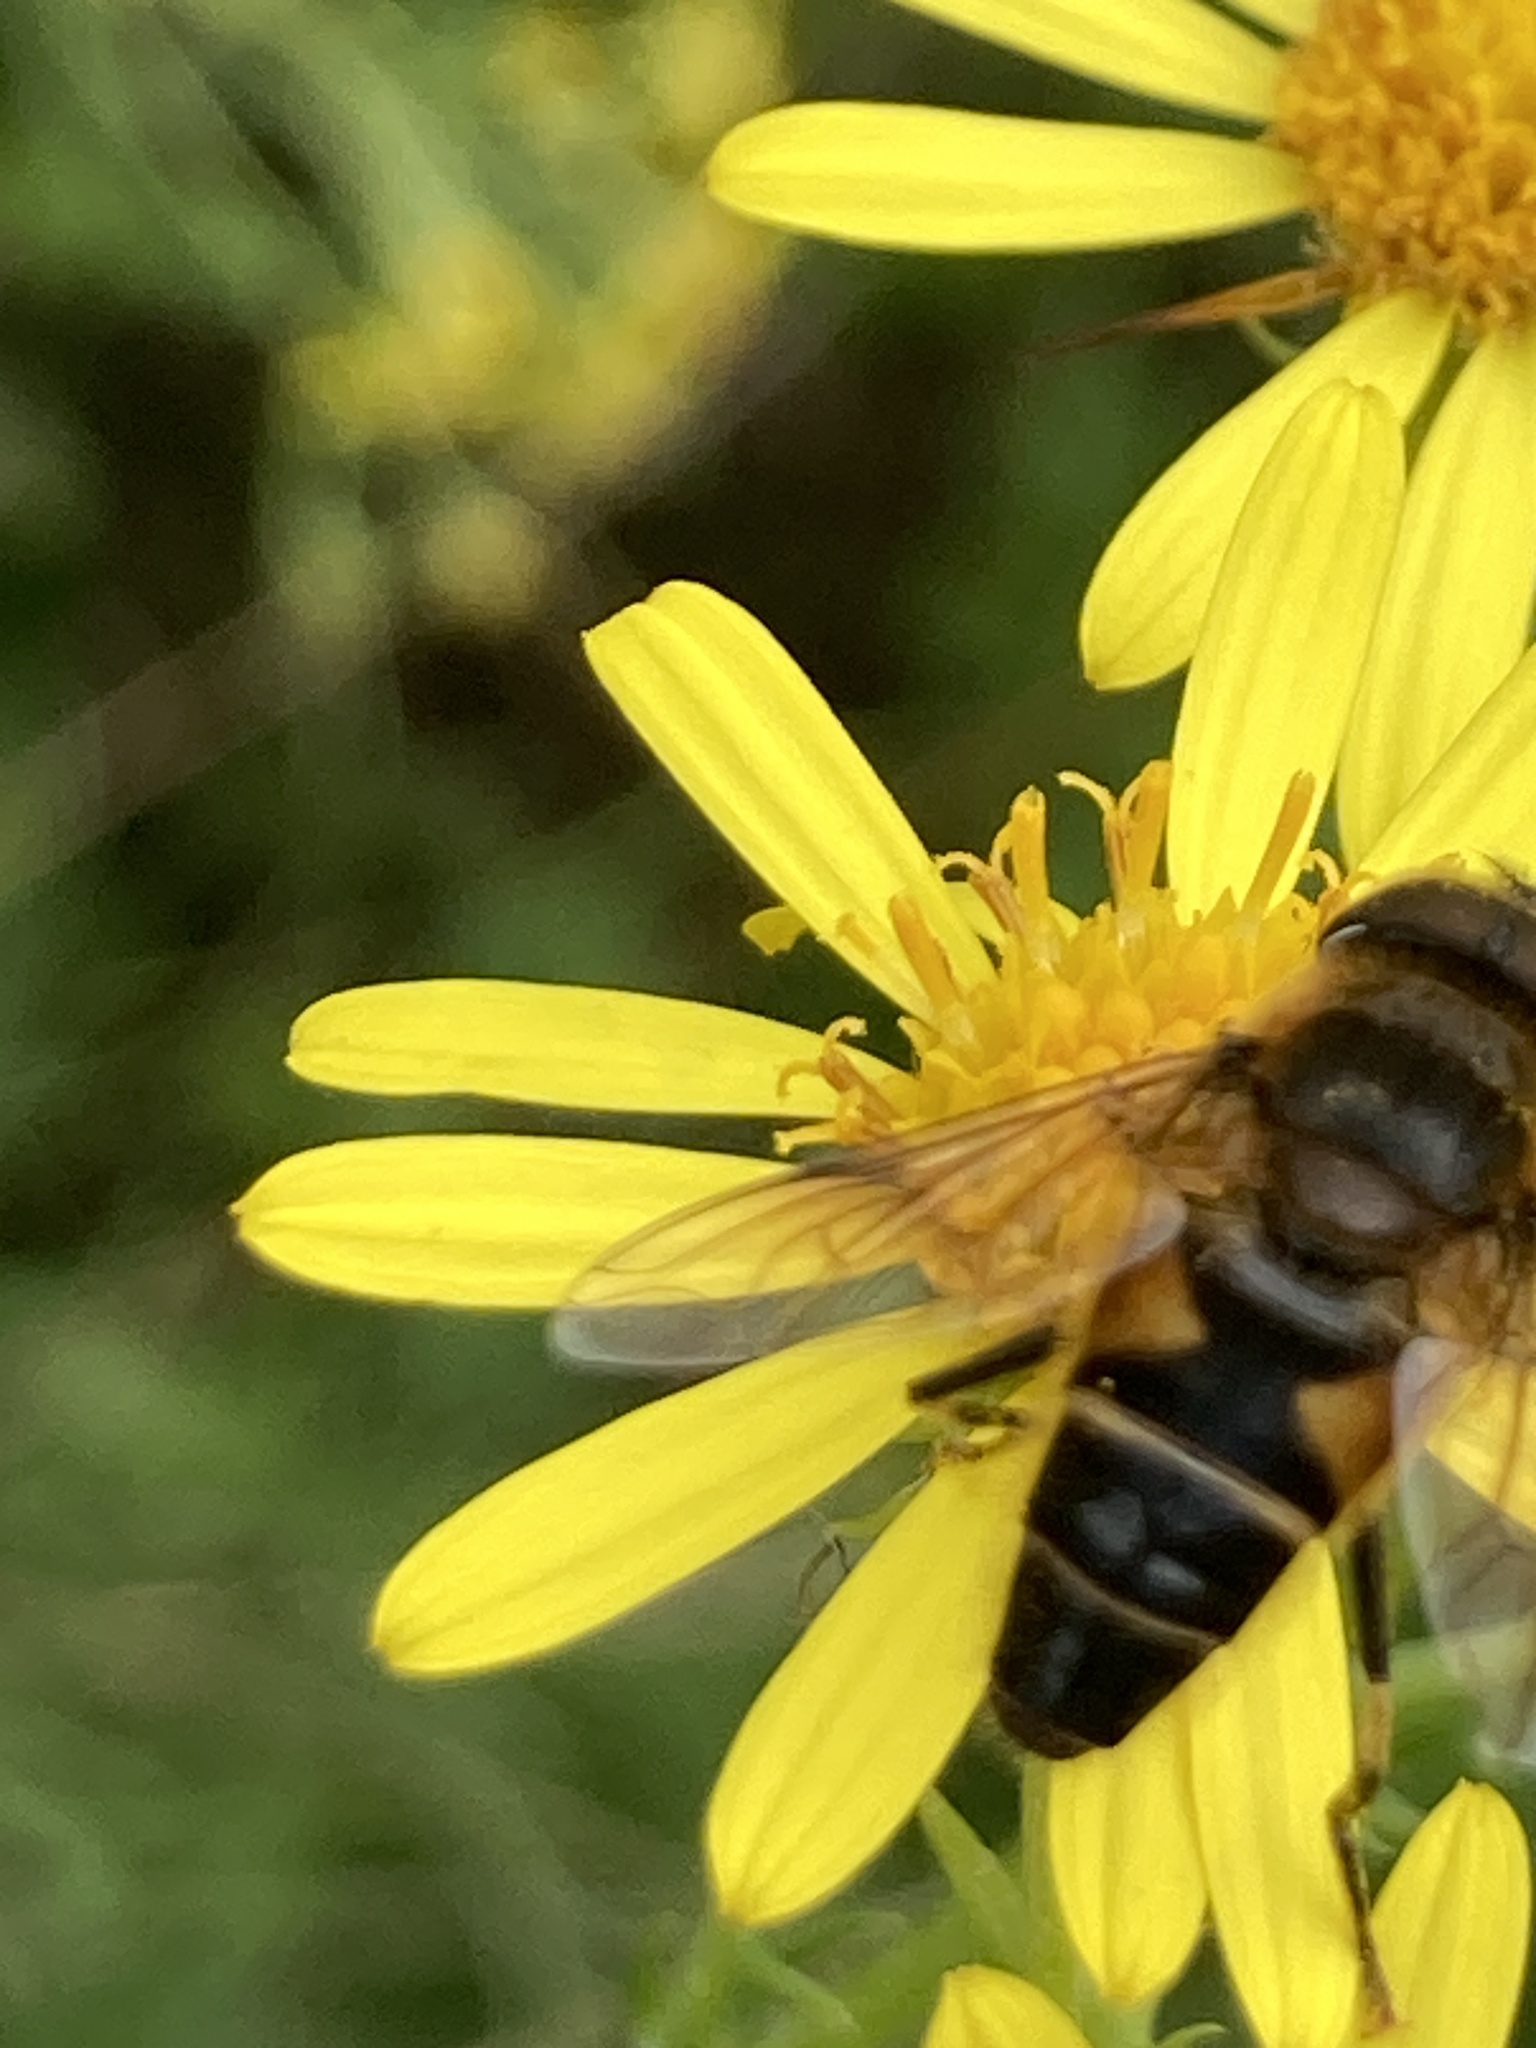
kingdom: Animalia
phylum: Arthropoda
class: Insecta
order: Diptera
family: Syrphidae
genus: Eristalis
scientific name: Eristalis pertinax
